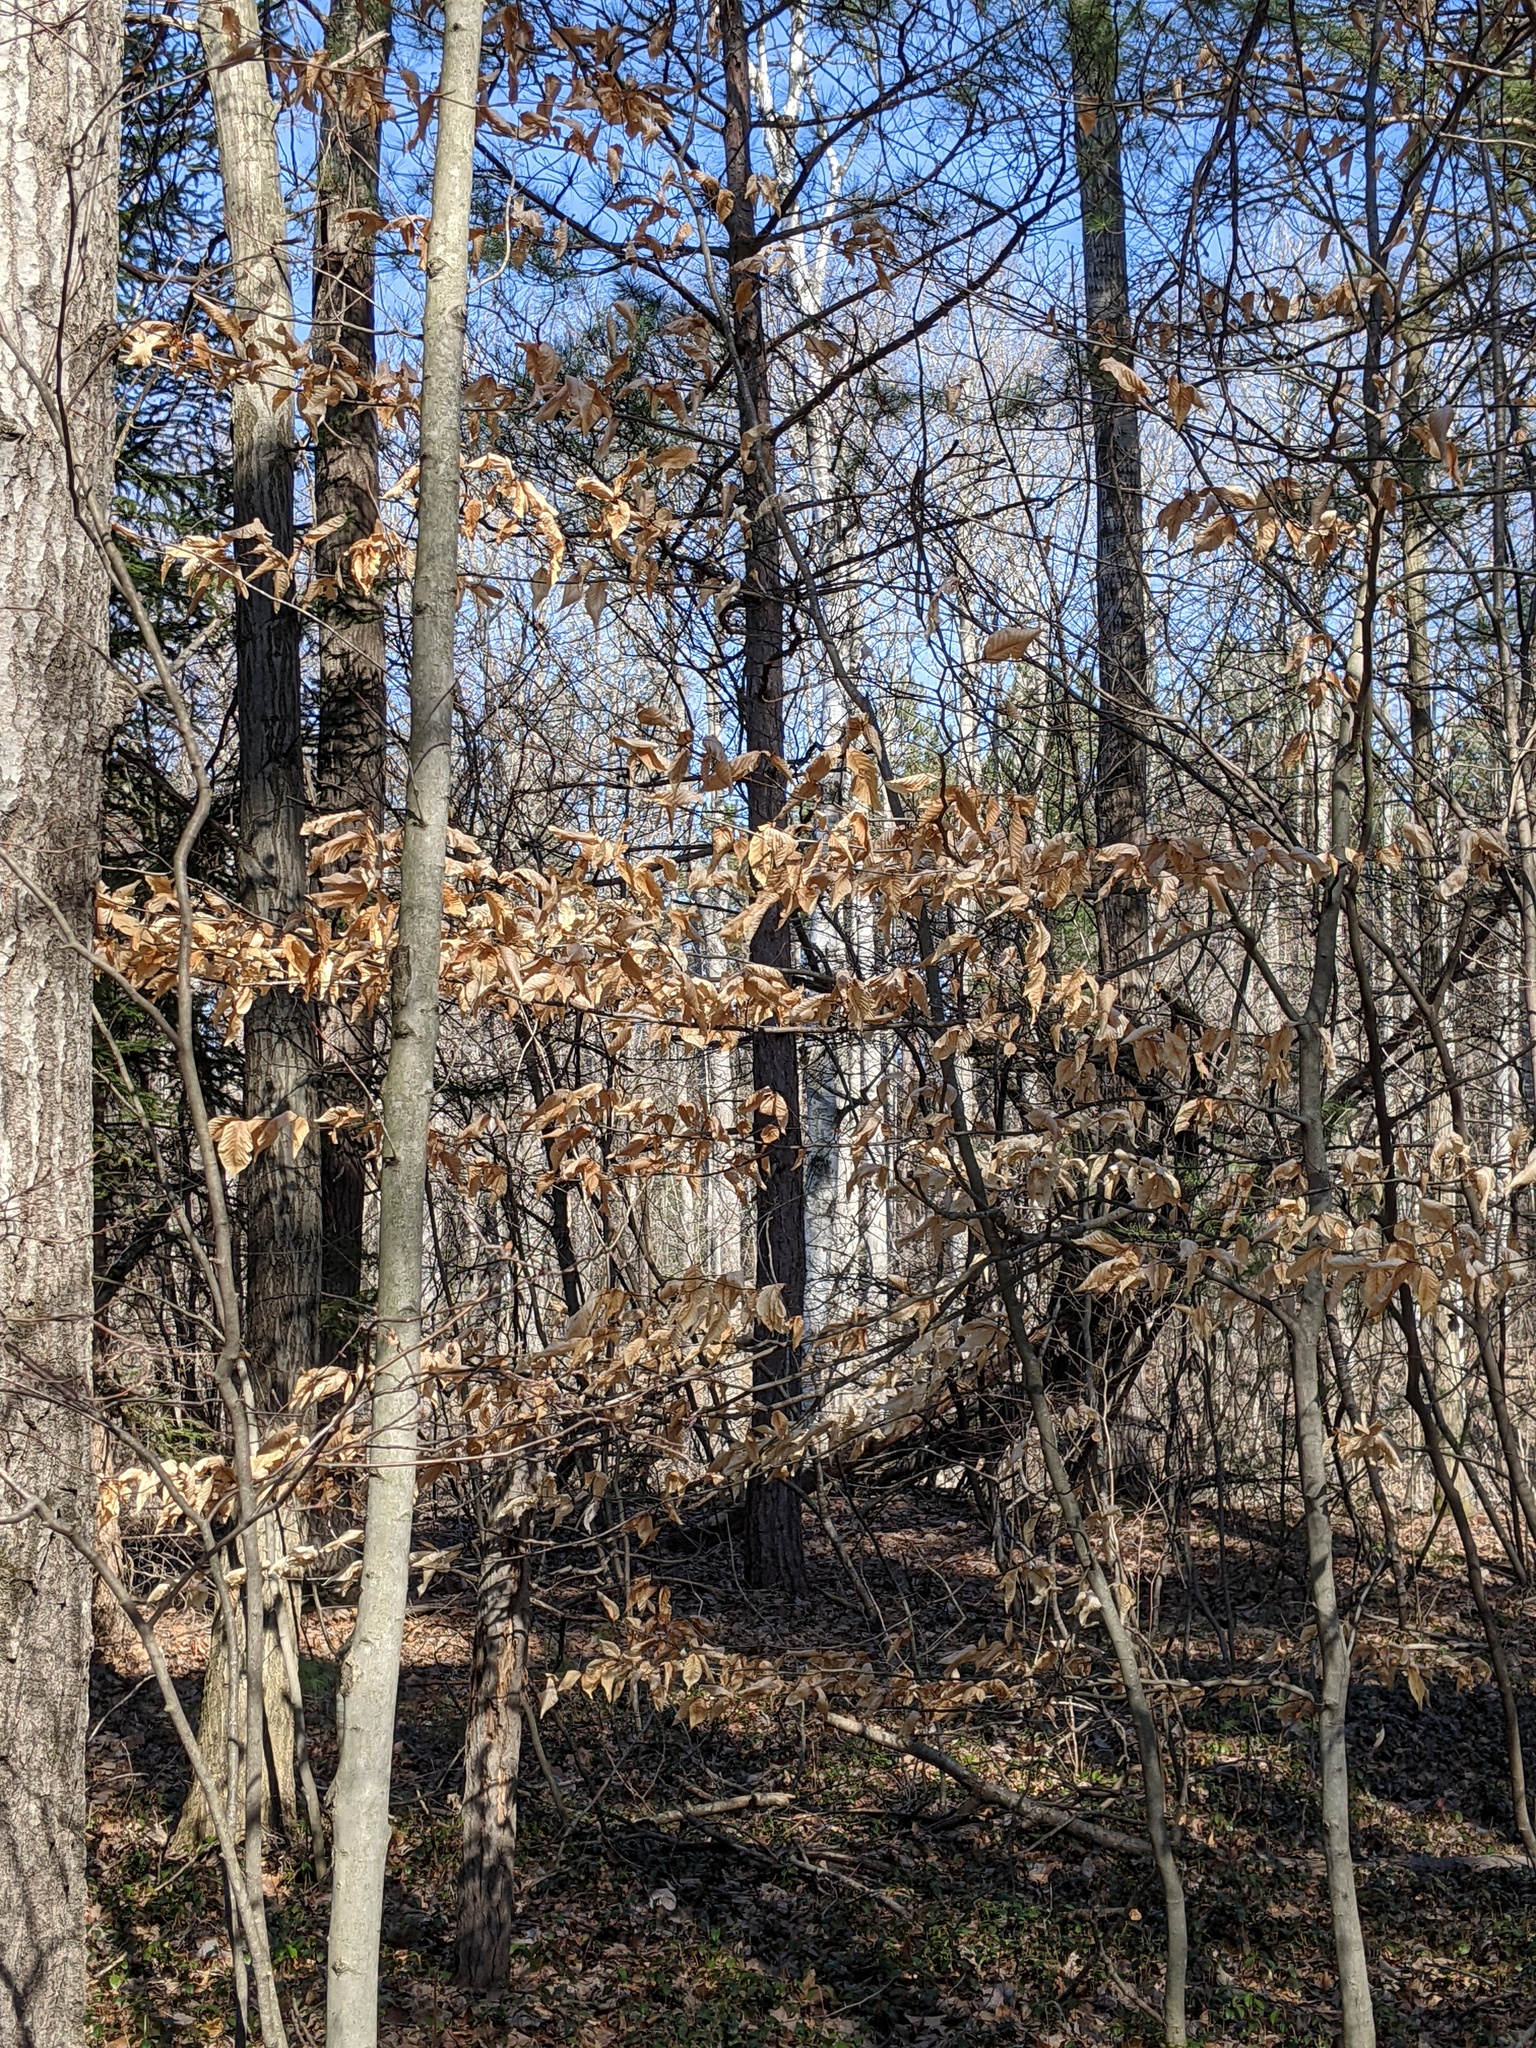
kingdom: Plantae
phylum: Tracheophyta
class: Magnoliopsida
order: Fagales
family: Fagaceae
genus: Fagus
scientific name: Fagus grandifolia
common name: American beech
